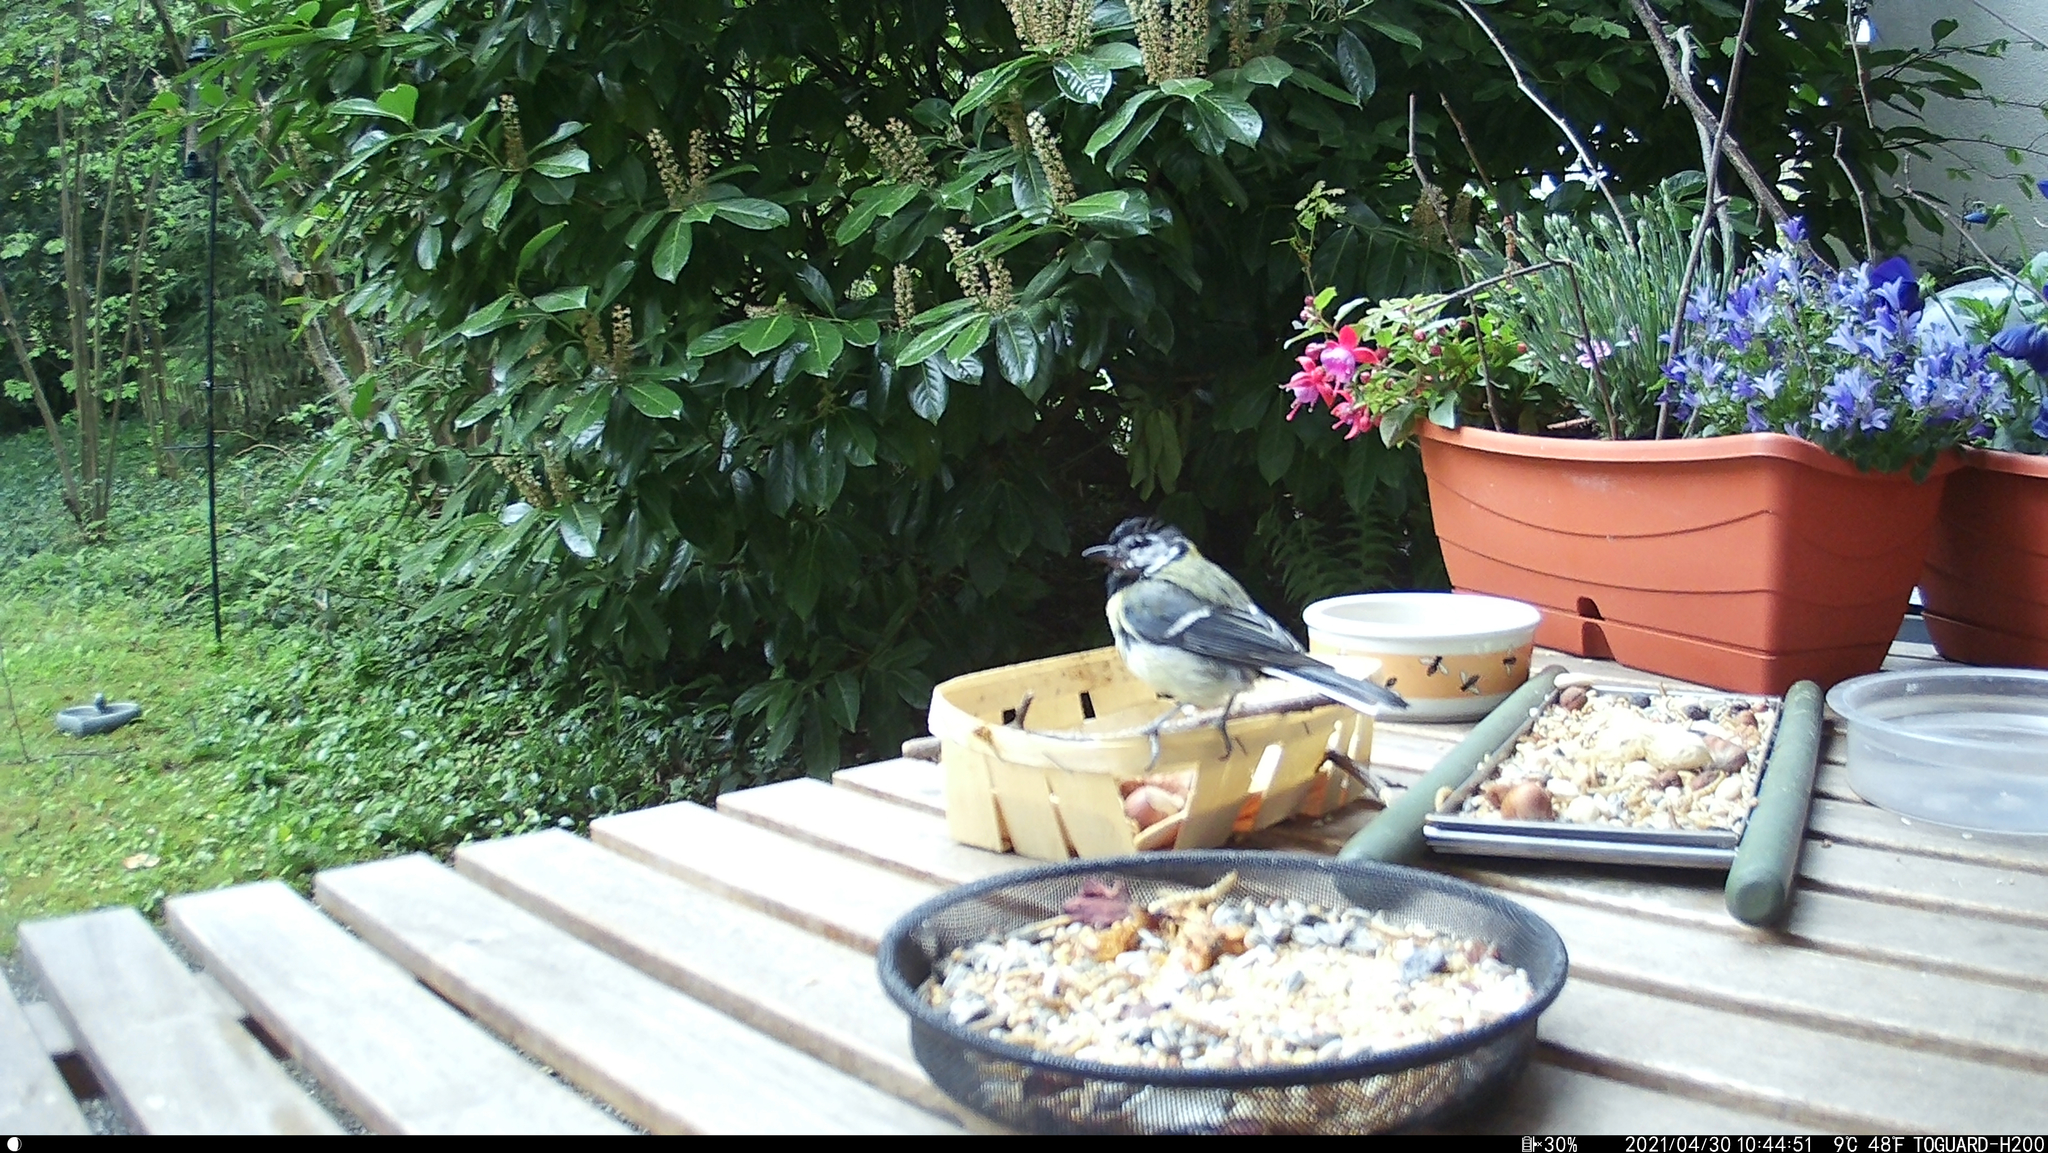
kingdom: Animalia
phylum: Chordata
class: Aves
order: Passeriformes
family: Paridae
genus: Parus
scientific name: Parus major
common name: Great tit
